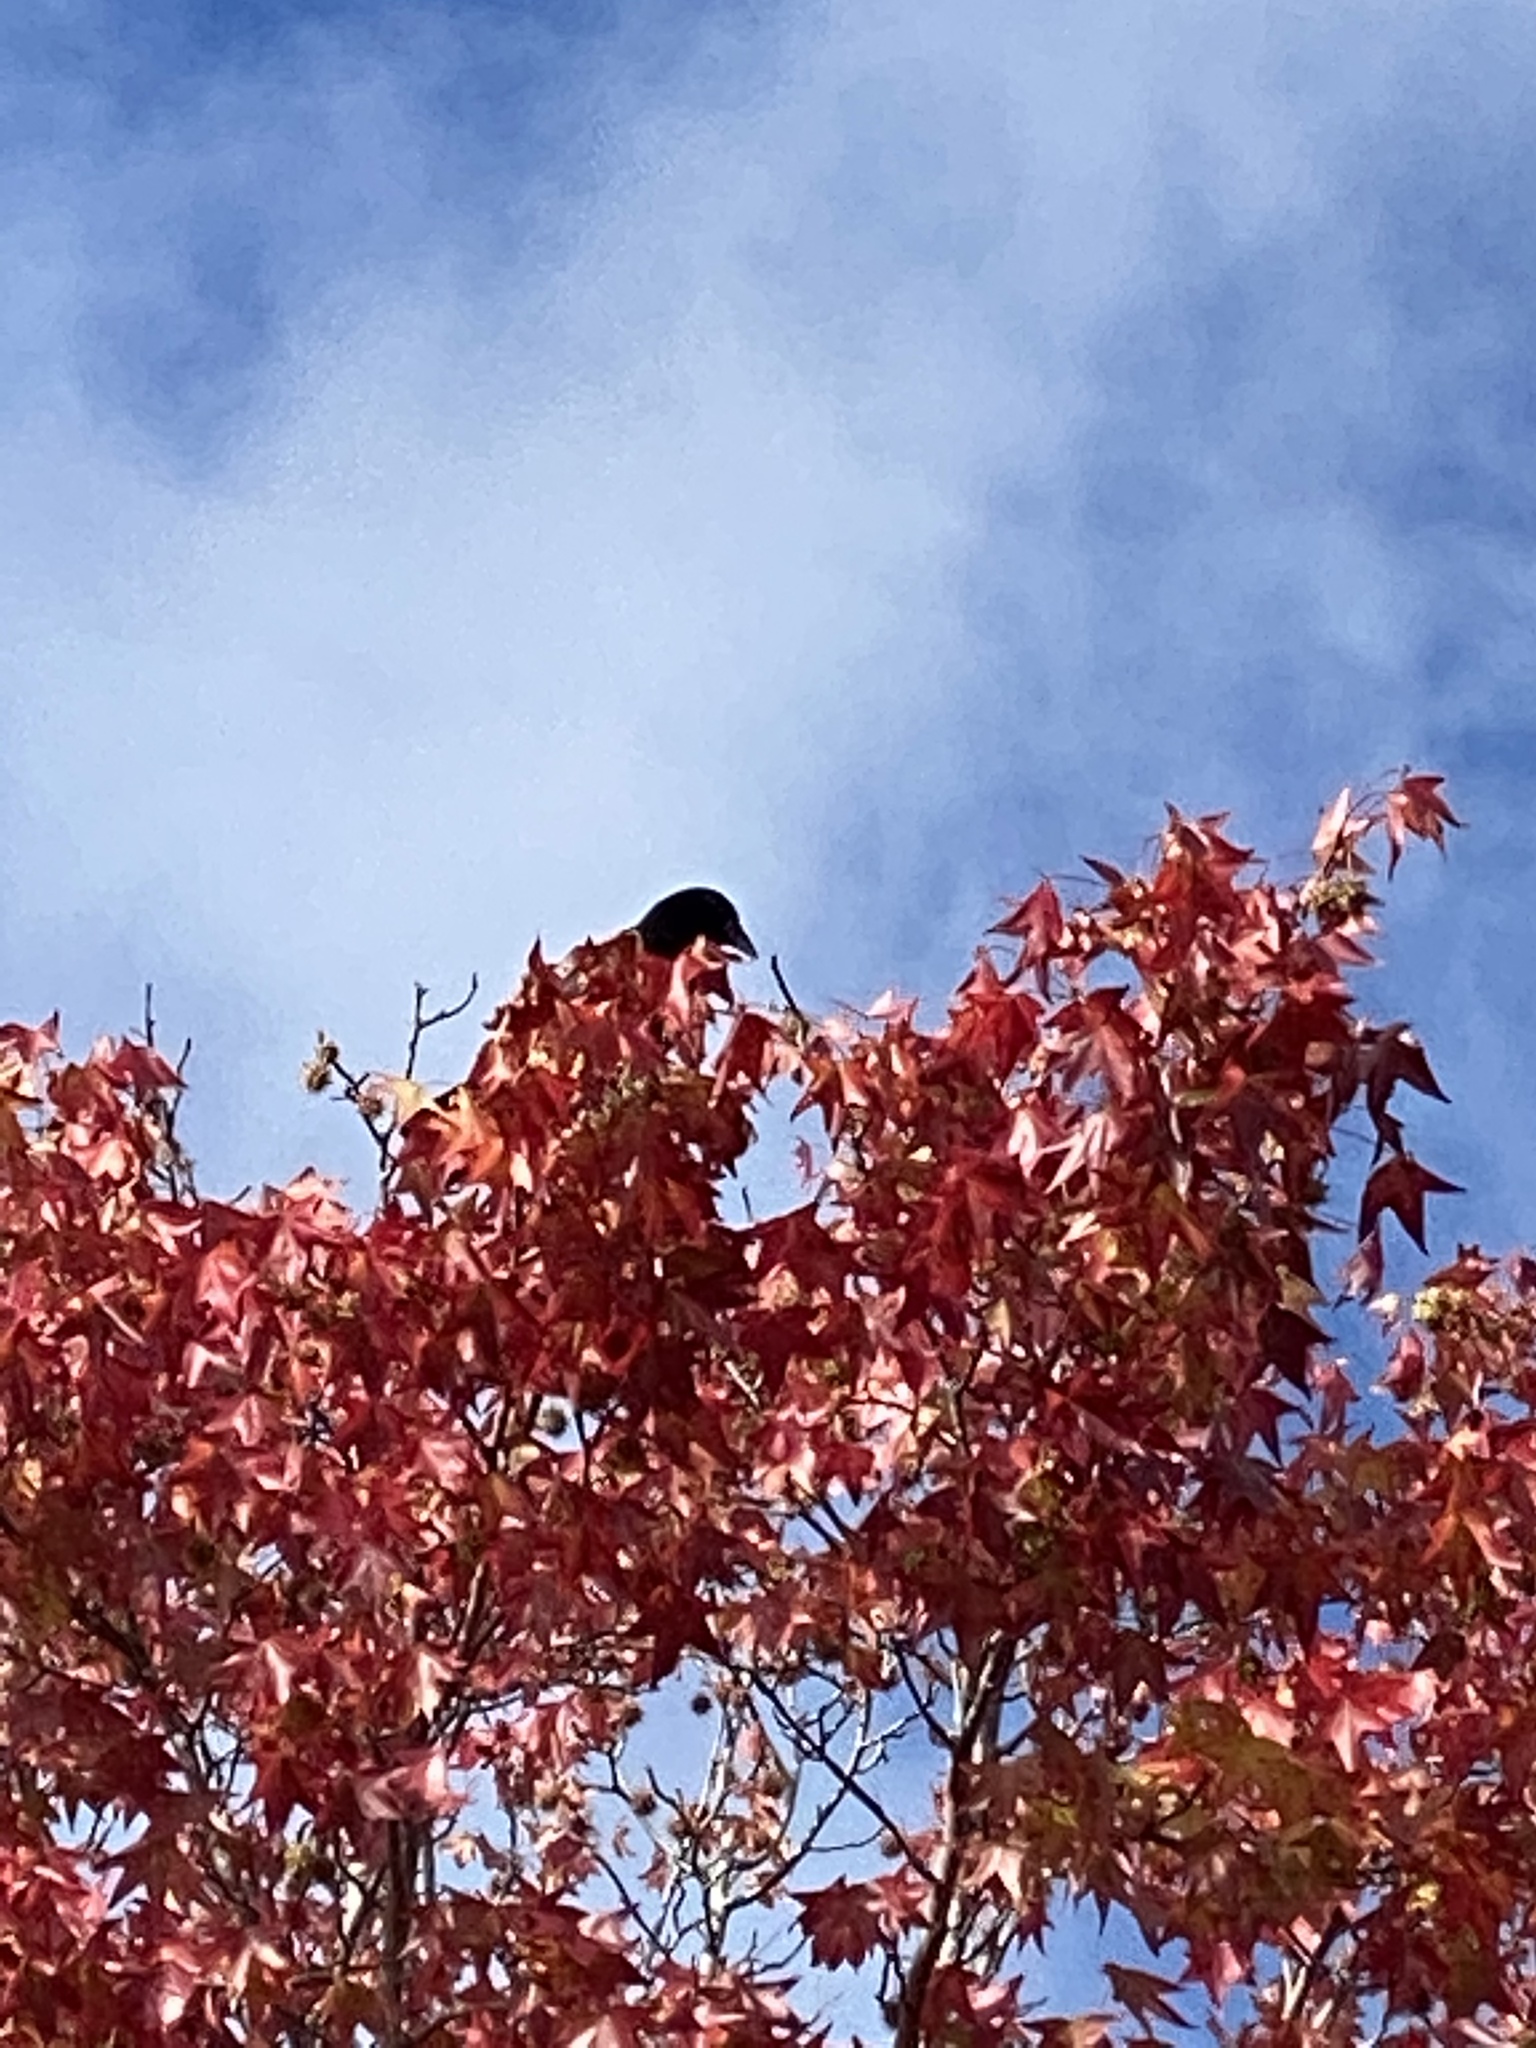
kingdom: Animalia
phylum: Chordata
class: Aves
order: Passeriformes
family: Corvidae
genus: Corvus
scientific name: Corvus brachyrhynchos
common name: American crow
